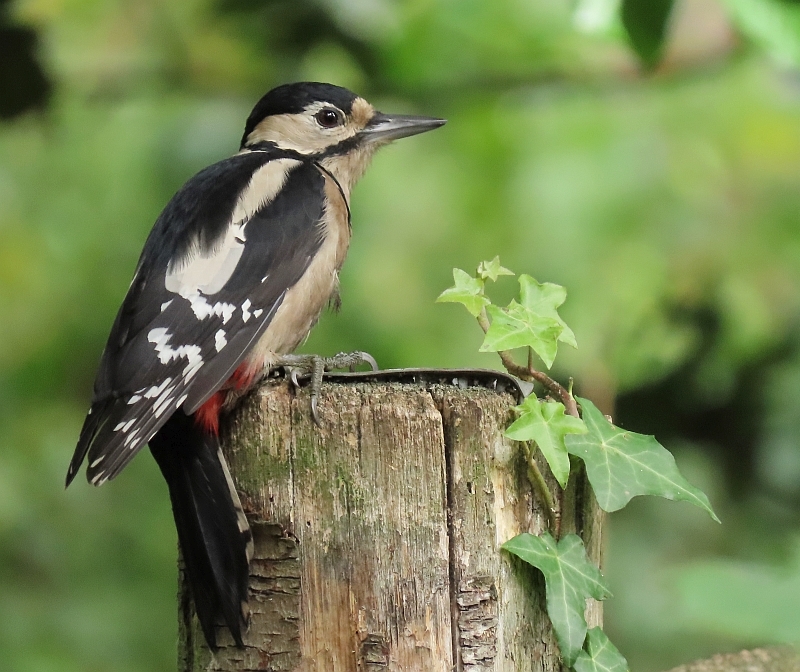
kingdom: Animalia
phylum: Chordata
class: Aves
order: Piciformes
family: Picidae
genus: Dendrocopos
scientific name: Dendrocopos major
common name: Great spotted woodpecker
